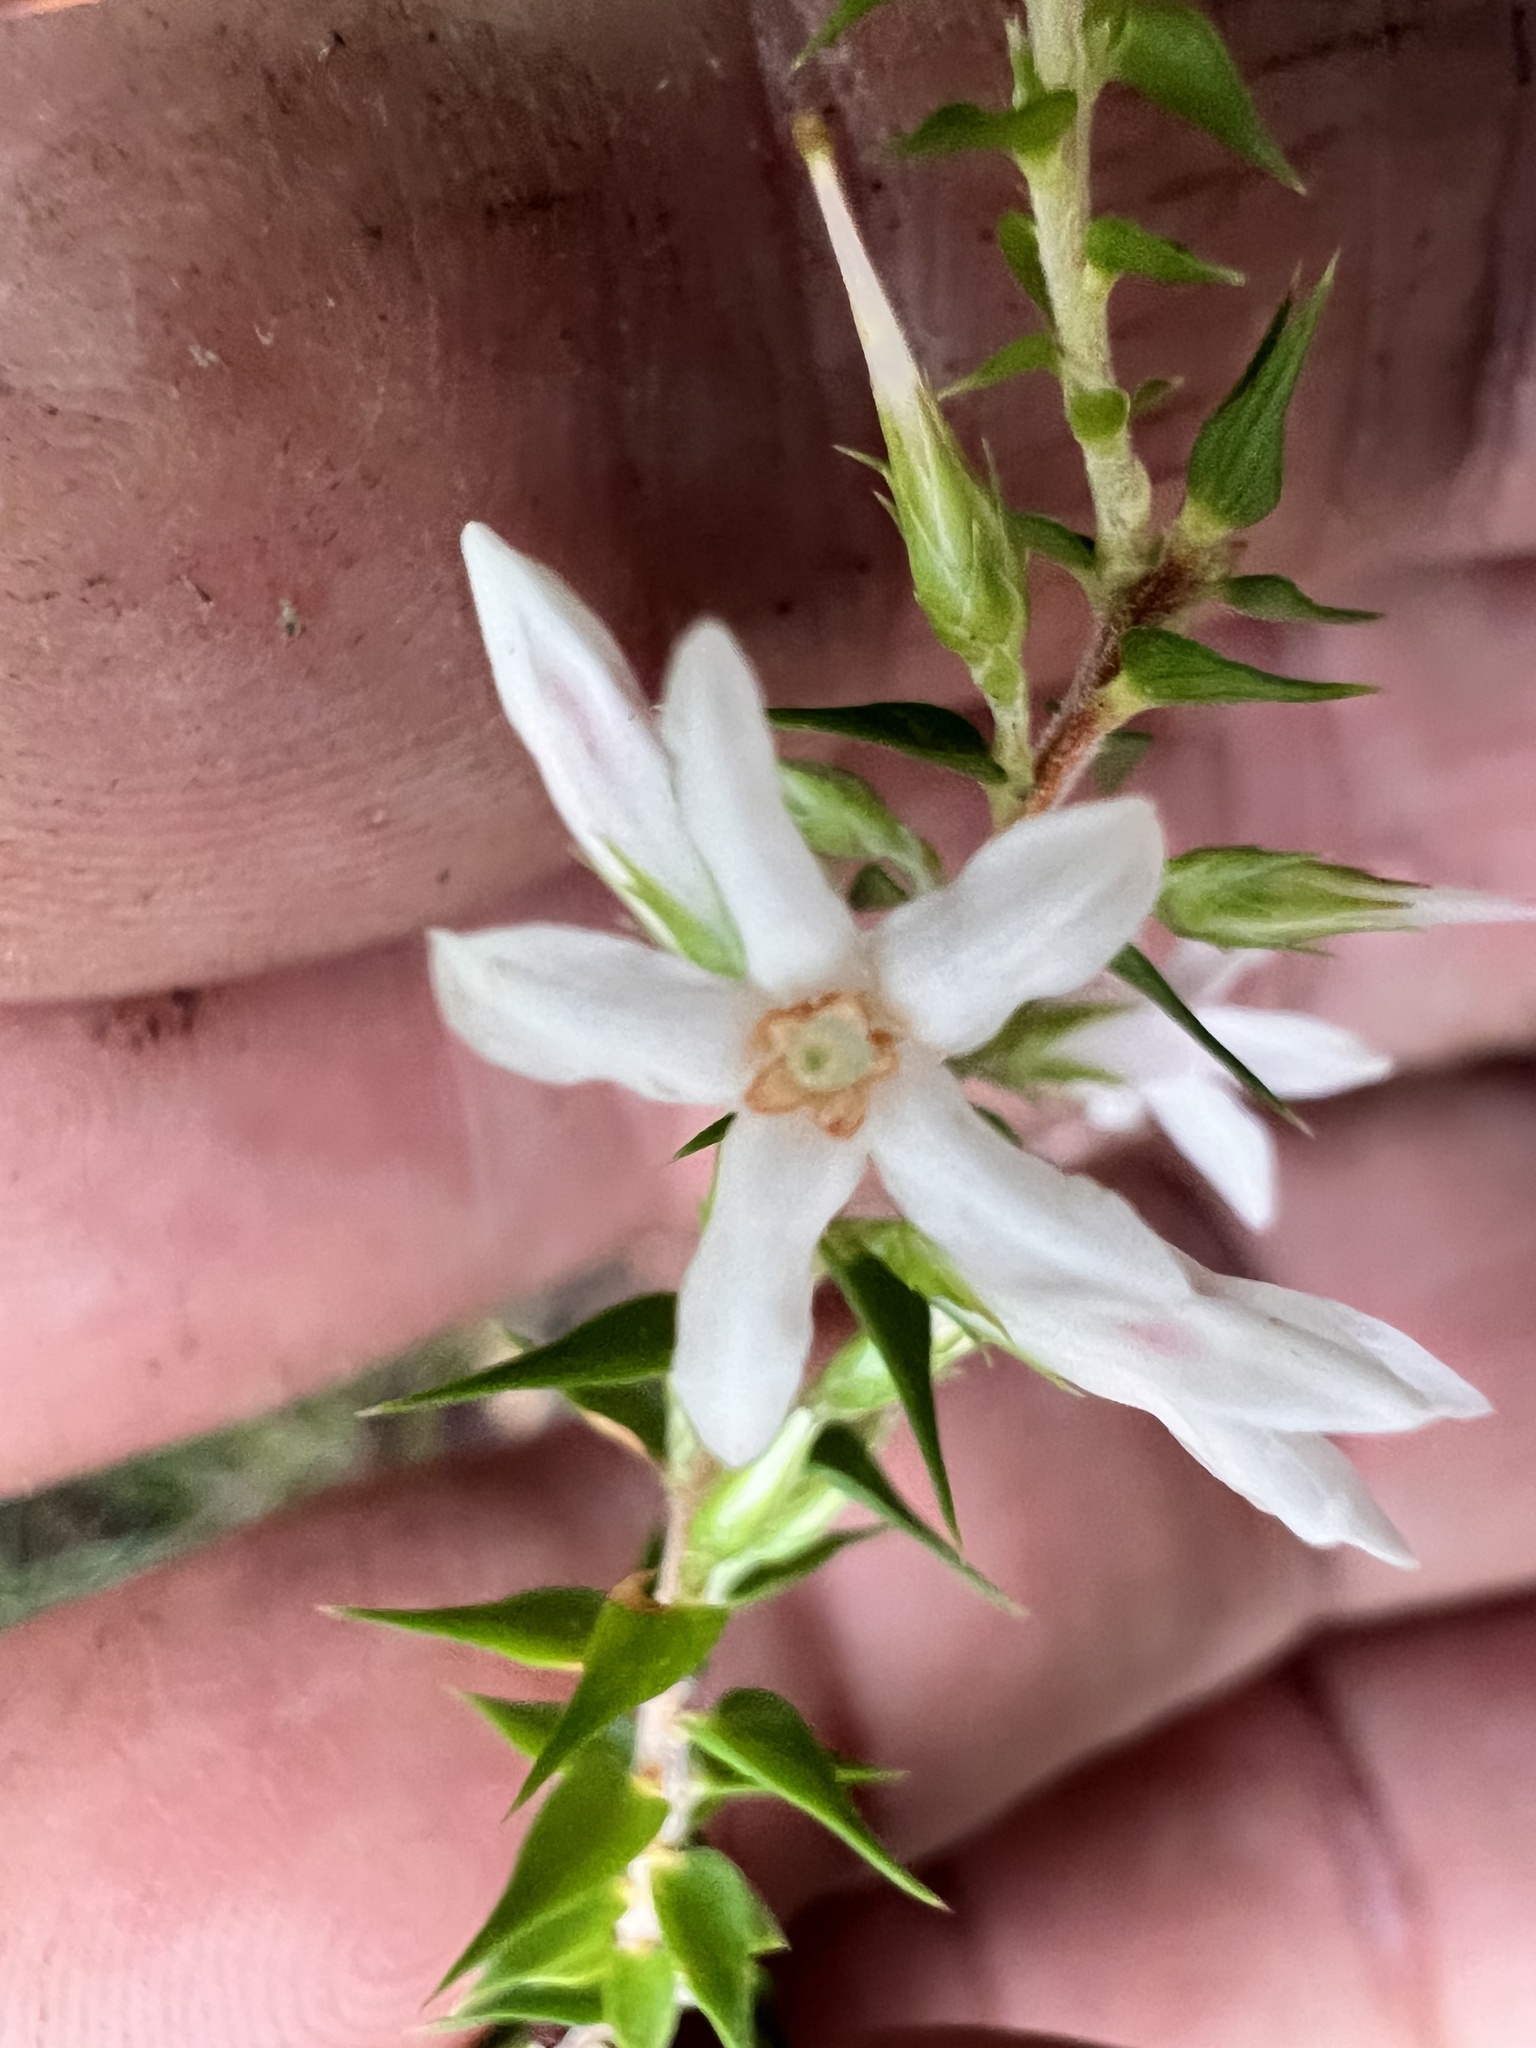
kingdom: Plantae
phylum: Tracheophyta
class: Magnoliopsida
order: Ericales
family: Ericaceae
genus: Epacris
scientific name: Epacris pulchella
